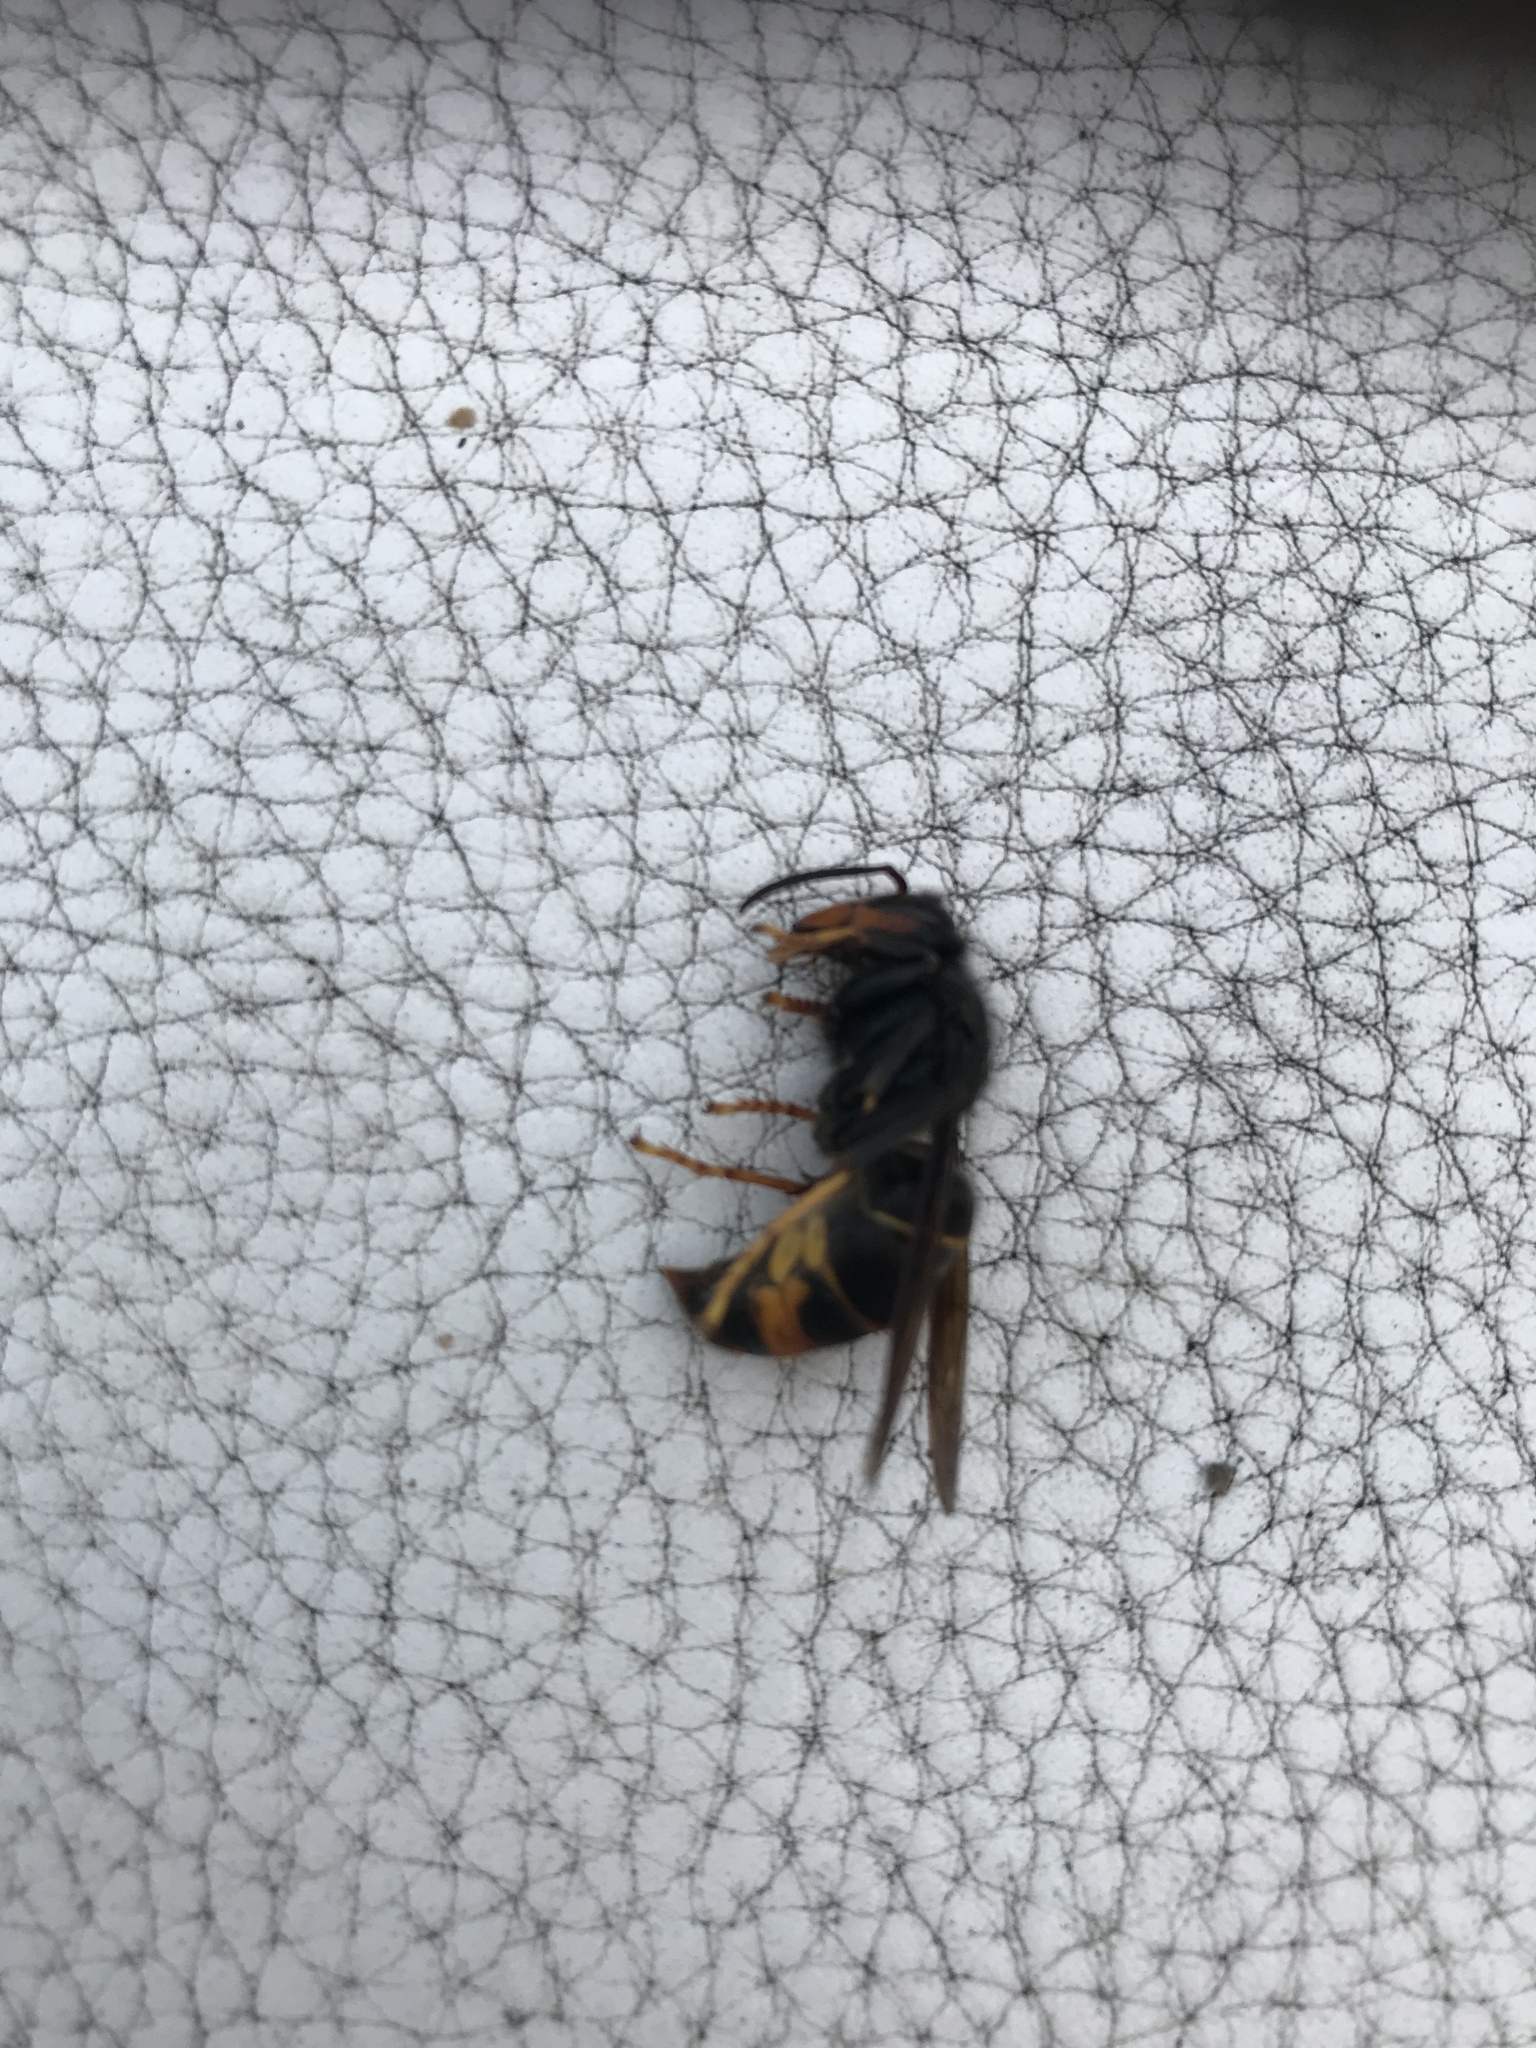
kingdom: Animalia
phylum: Arthropoda
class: Insecta
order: Hymenoptera
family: Vespidae
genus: Vespa
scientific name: Vespa velutina
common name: Asian hornet
